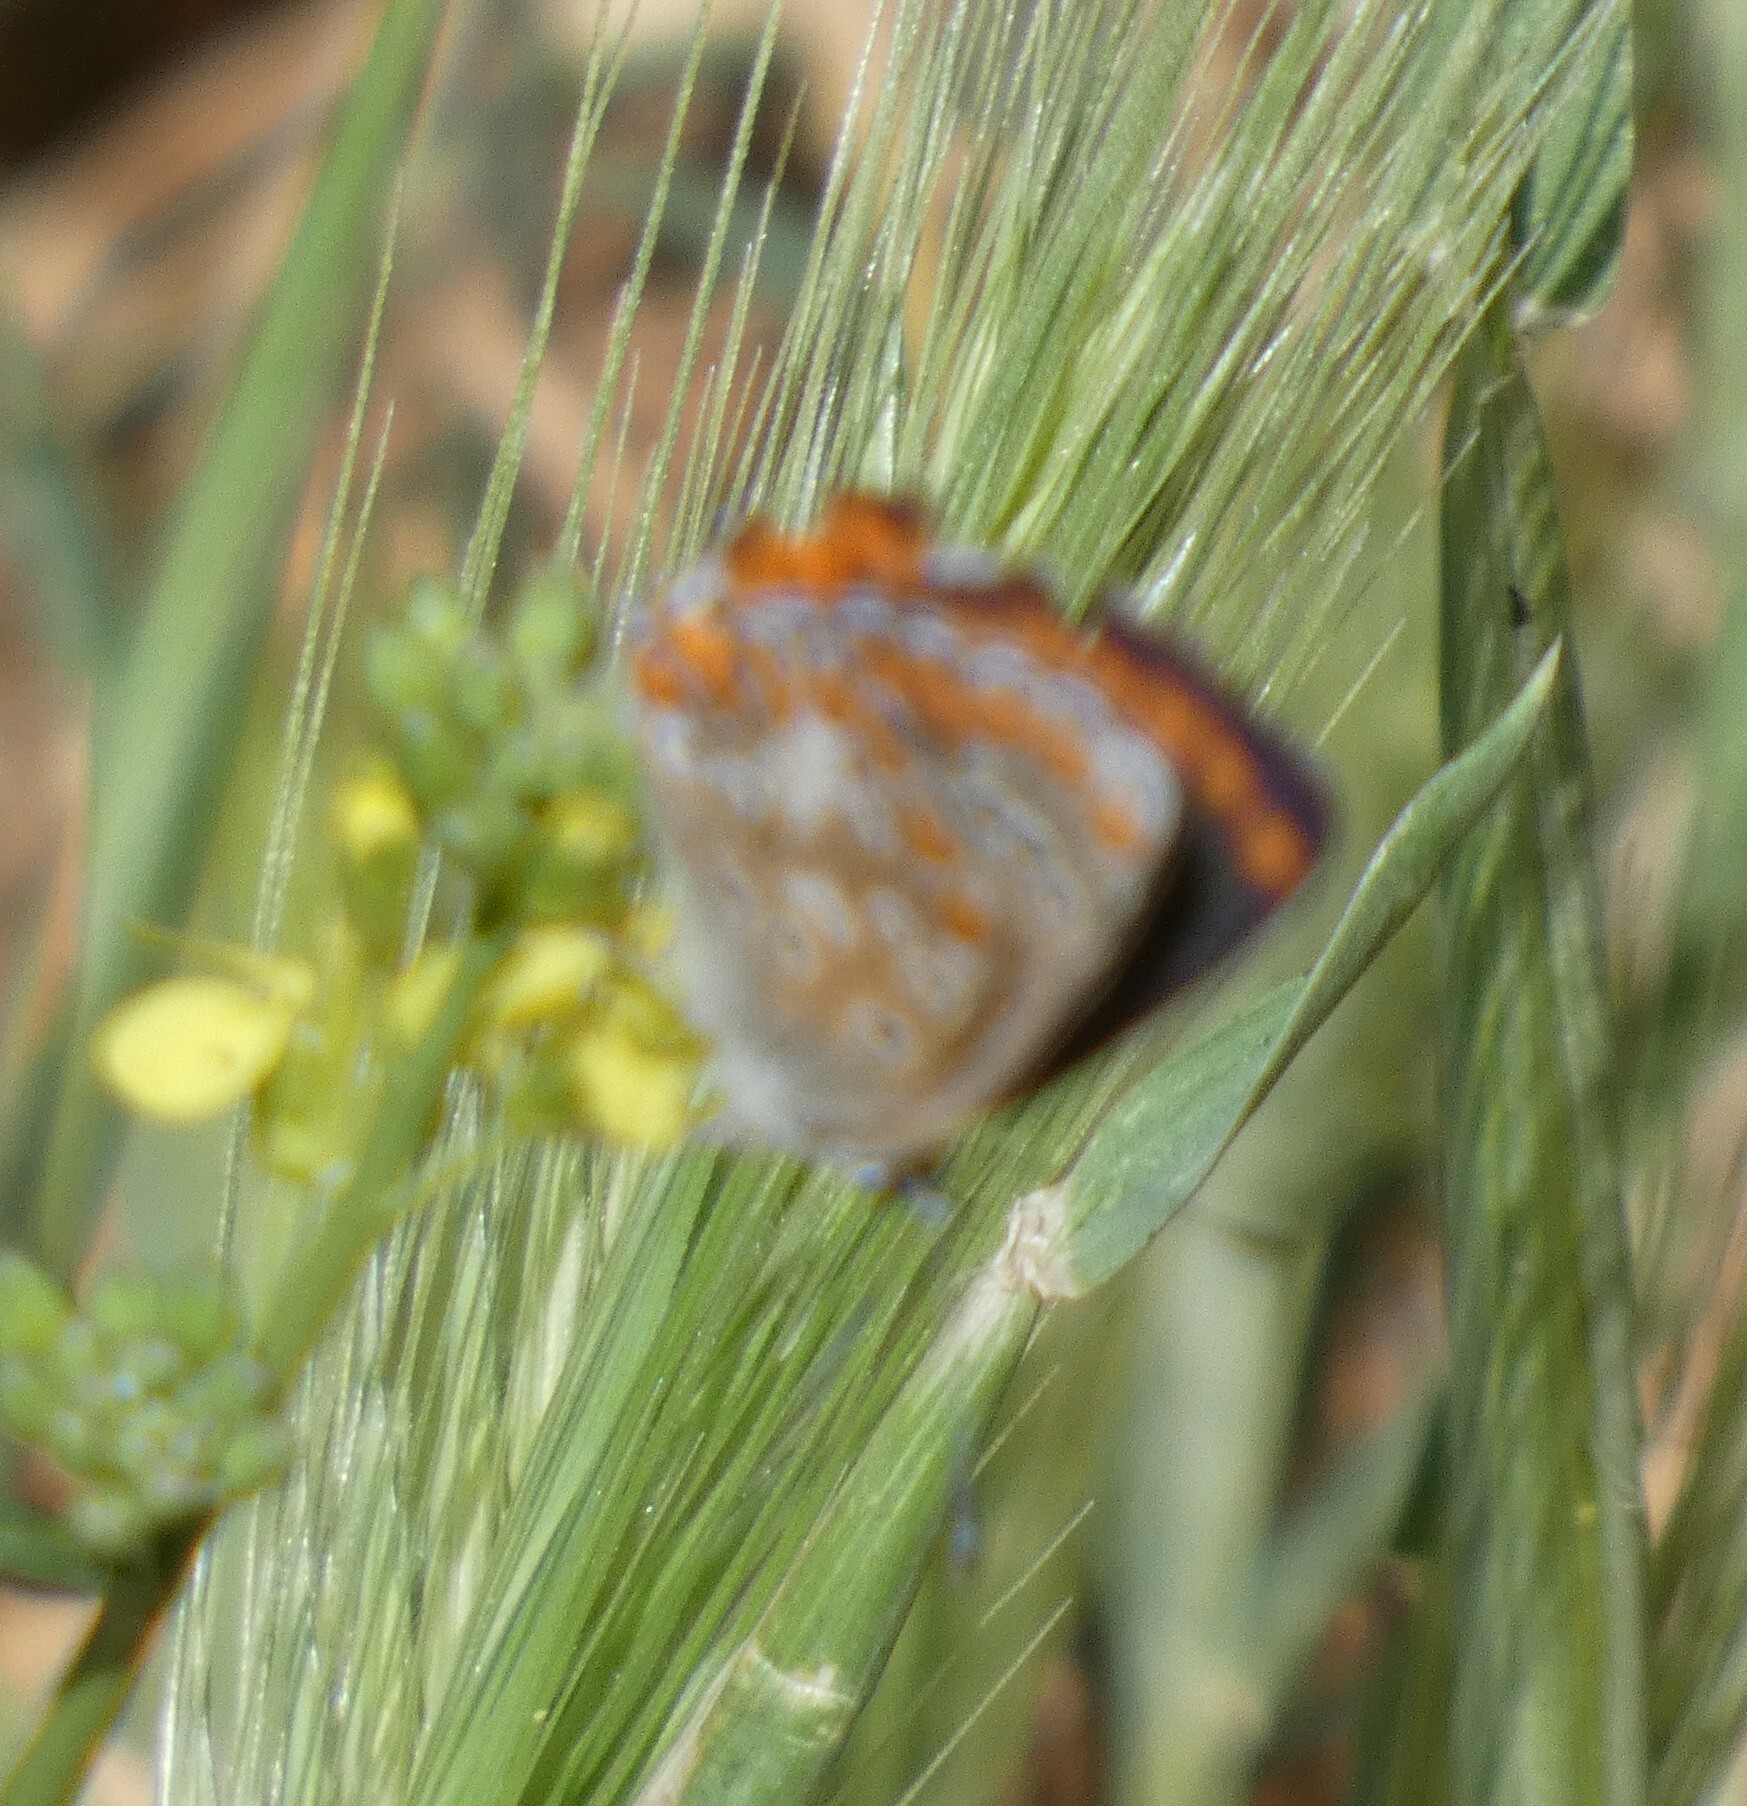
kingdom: Animalia
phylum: Arthropoda
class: Insecta
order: Lepidoptera
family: Lycaenidae
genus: Aricia
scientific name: Aricia cramera
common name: Eschscholtz´s brown  argus
